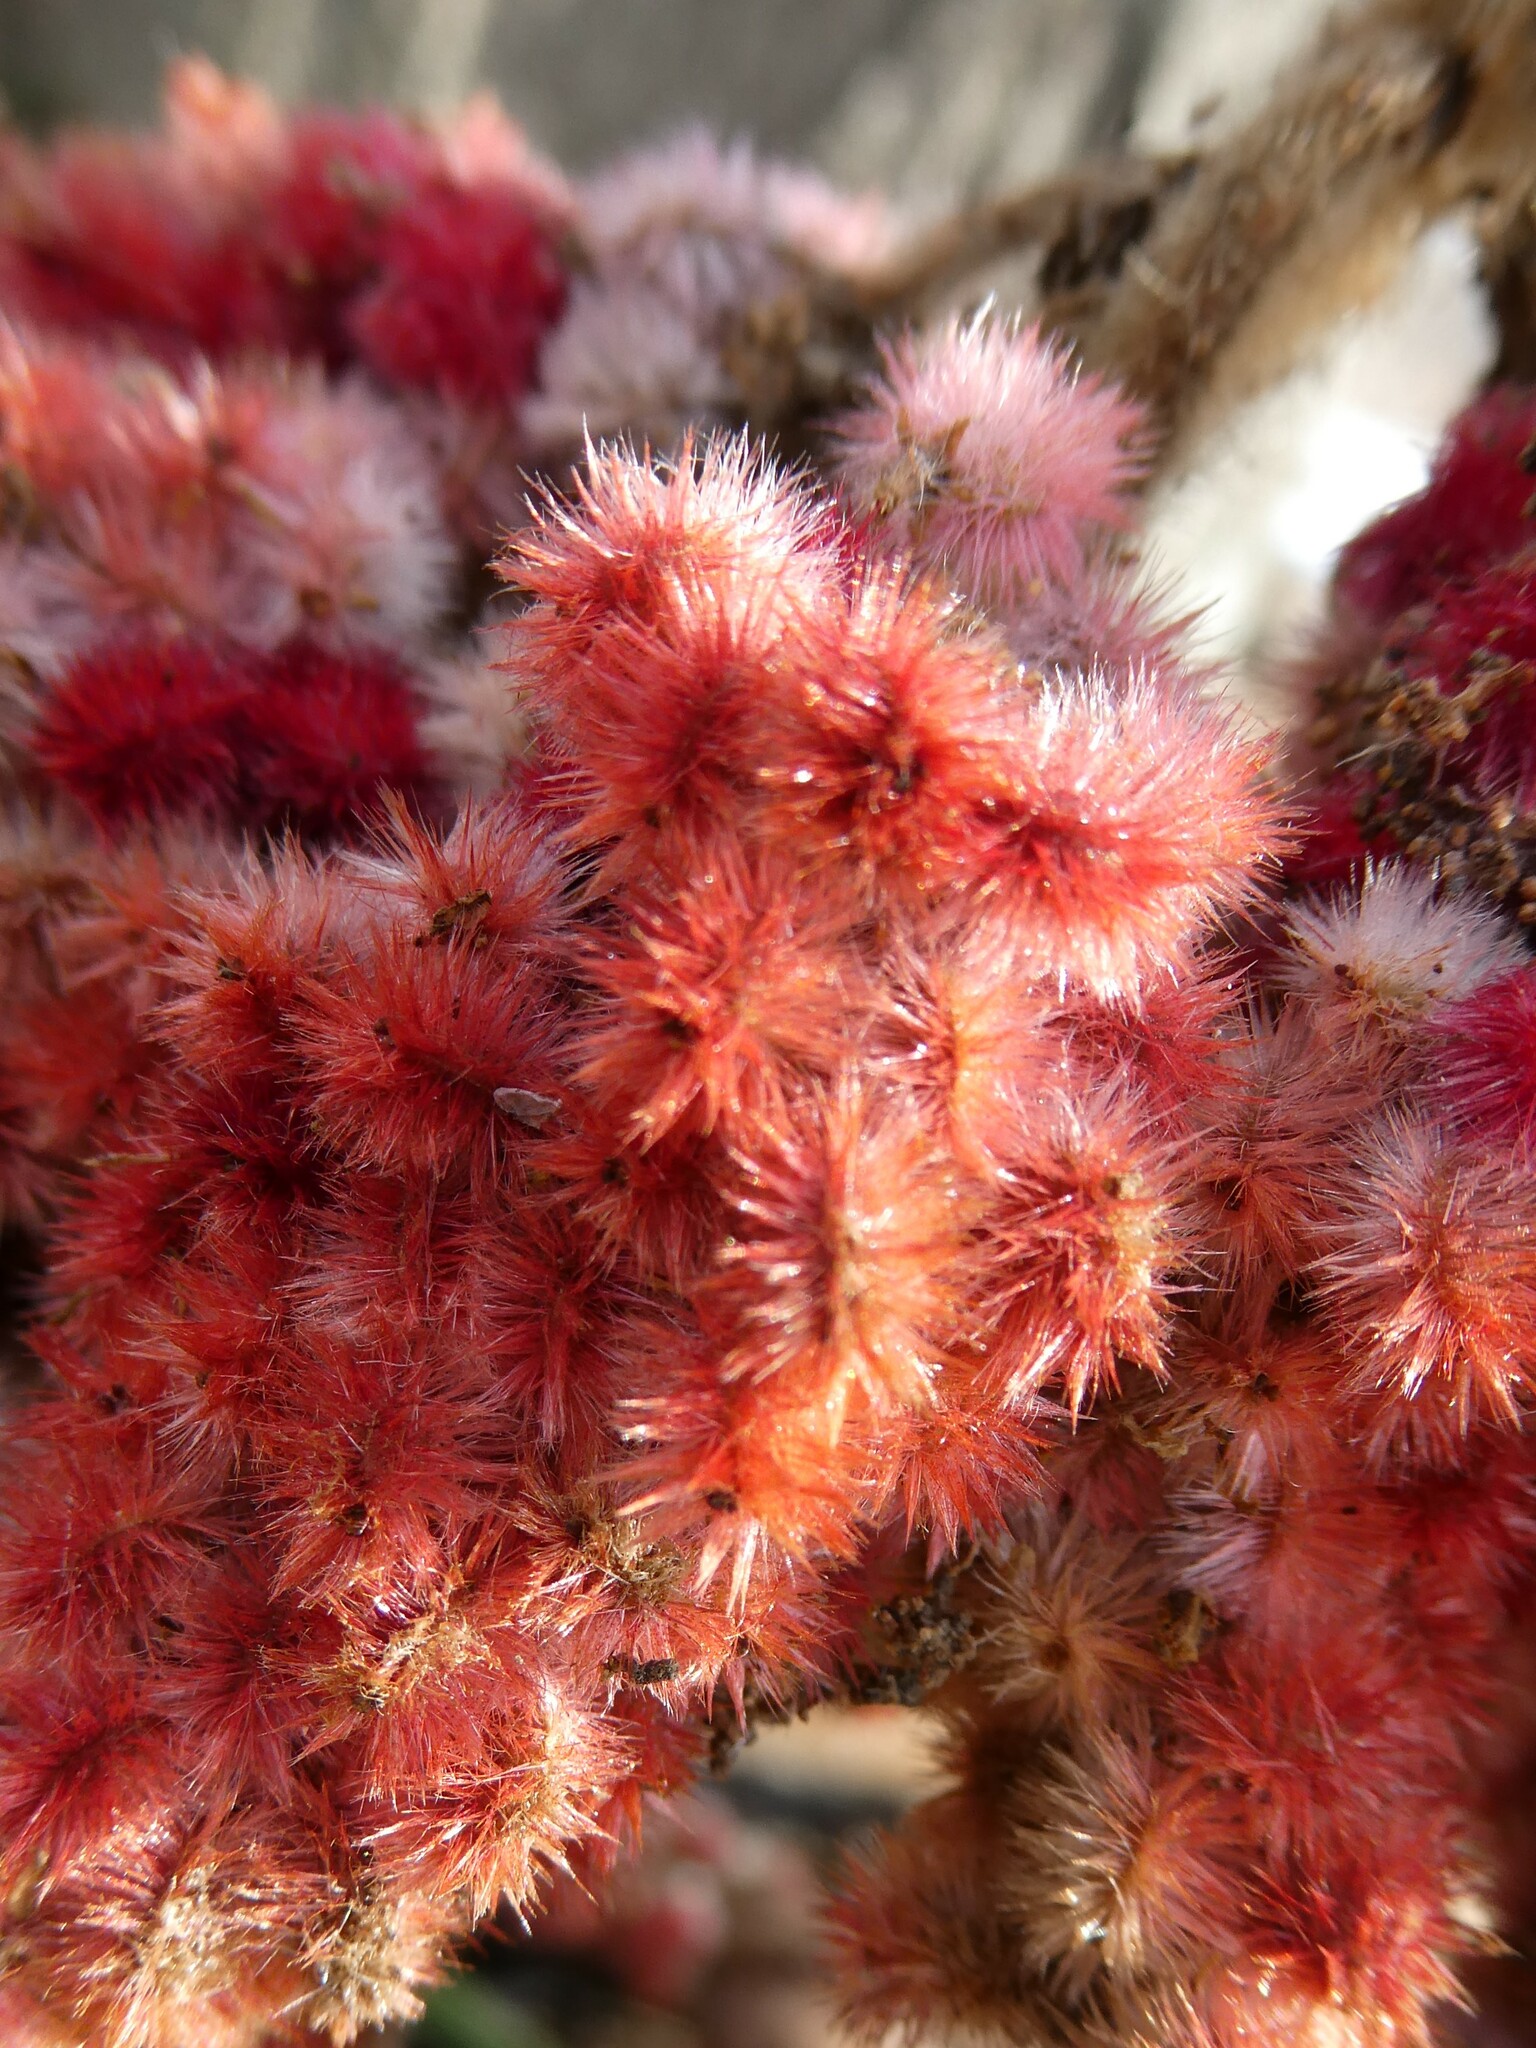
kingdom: Plantae
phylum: Tracheophyta
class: Magnoliopsida
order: Sapindales
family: Anacardiaceae
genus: Rhus
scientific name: Rhus typhina
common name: Staghorn sumac
